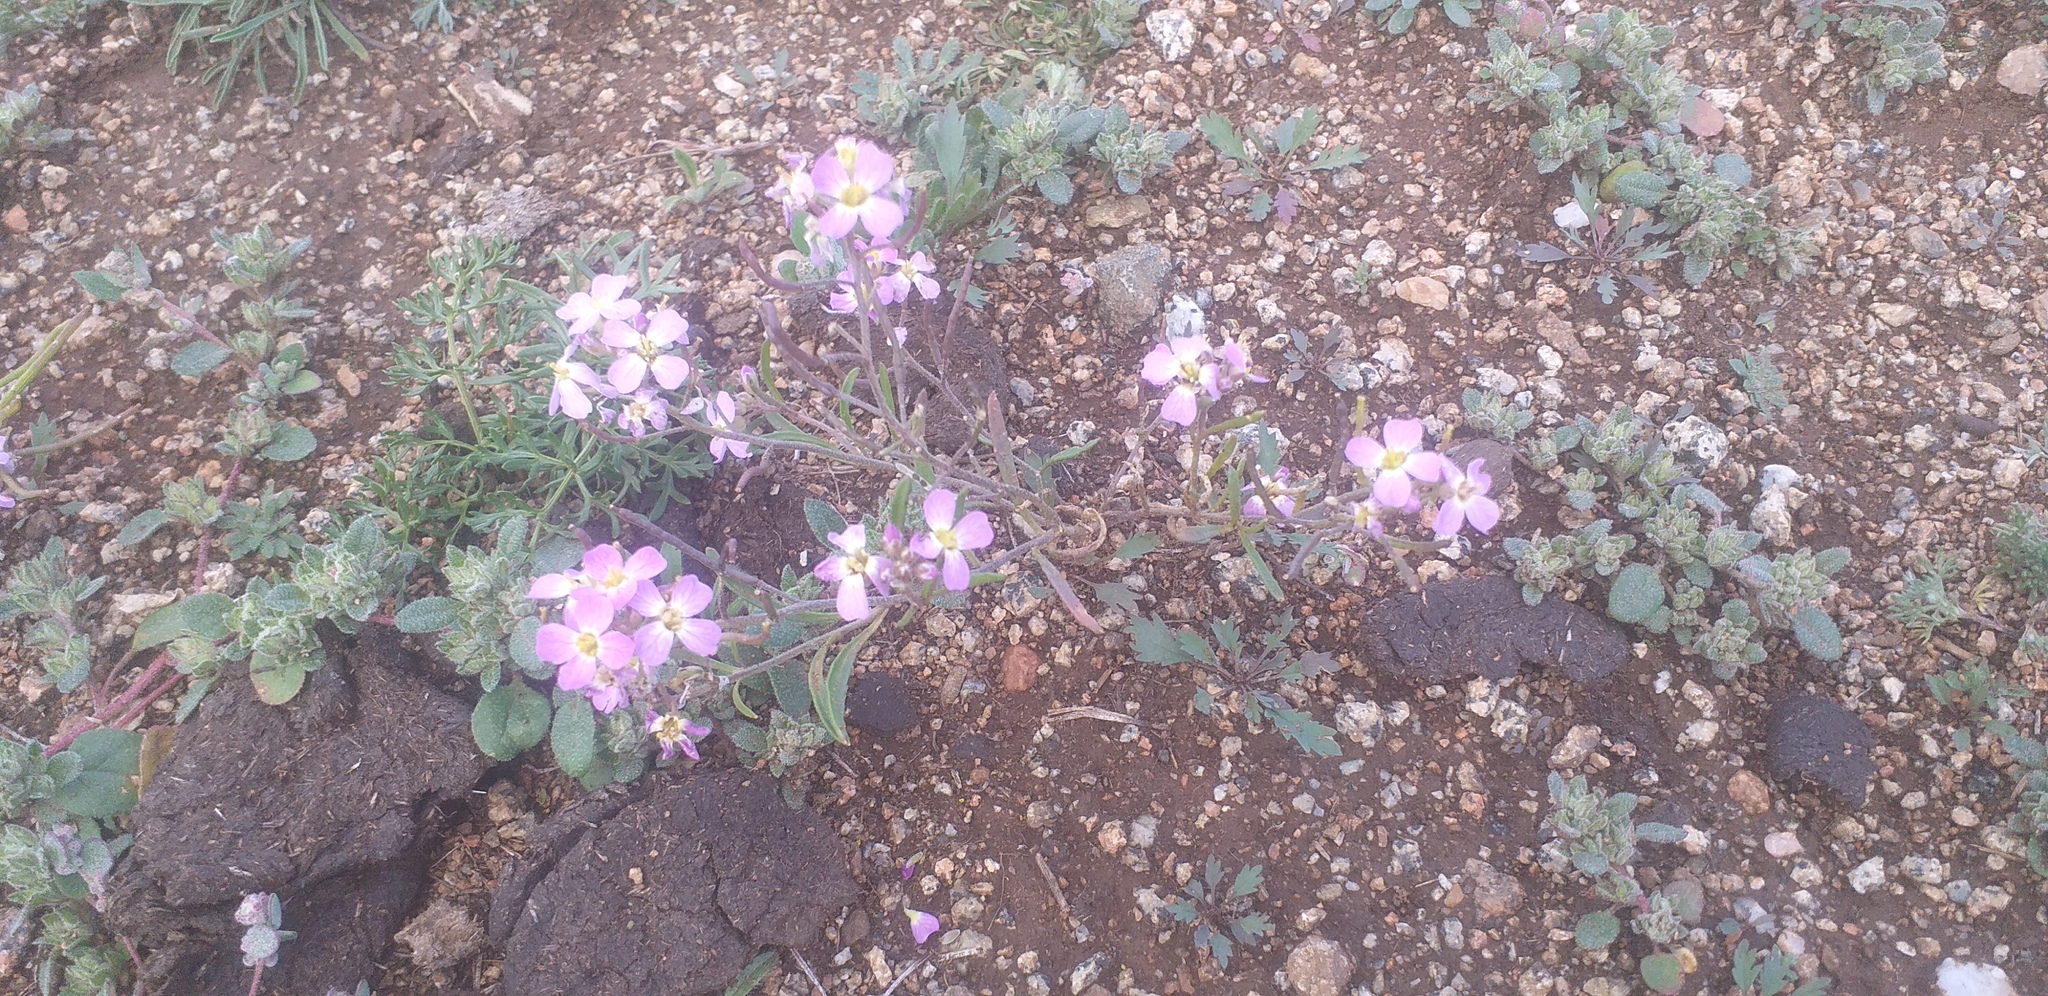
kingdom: Plantae
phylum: Tracheophyta
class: Magnoliopsida
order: Brassicales
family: Brassicaceae
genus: Dontostemon
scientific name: Dontostemon integrifolius
